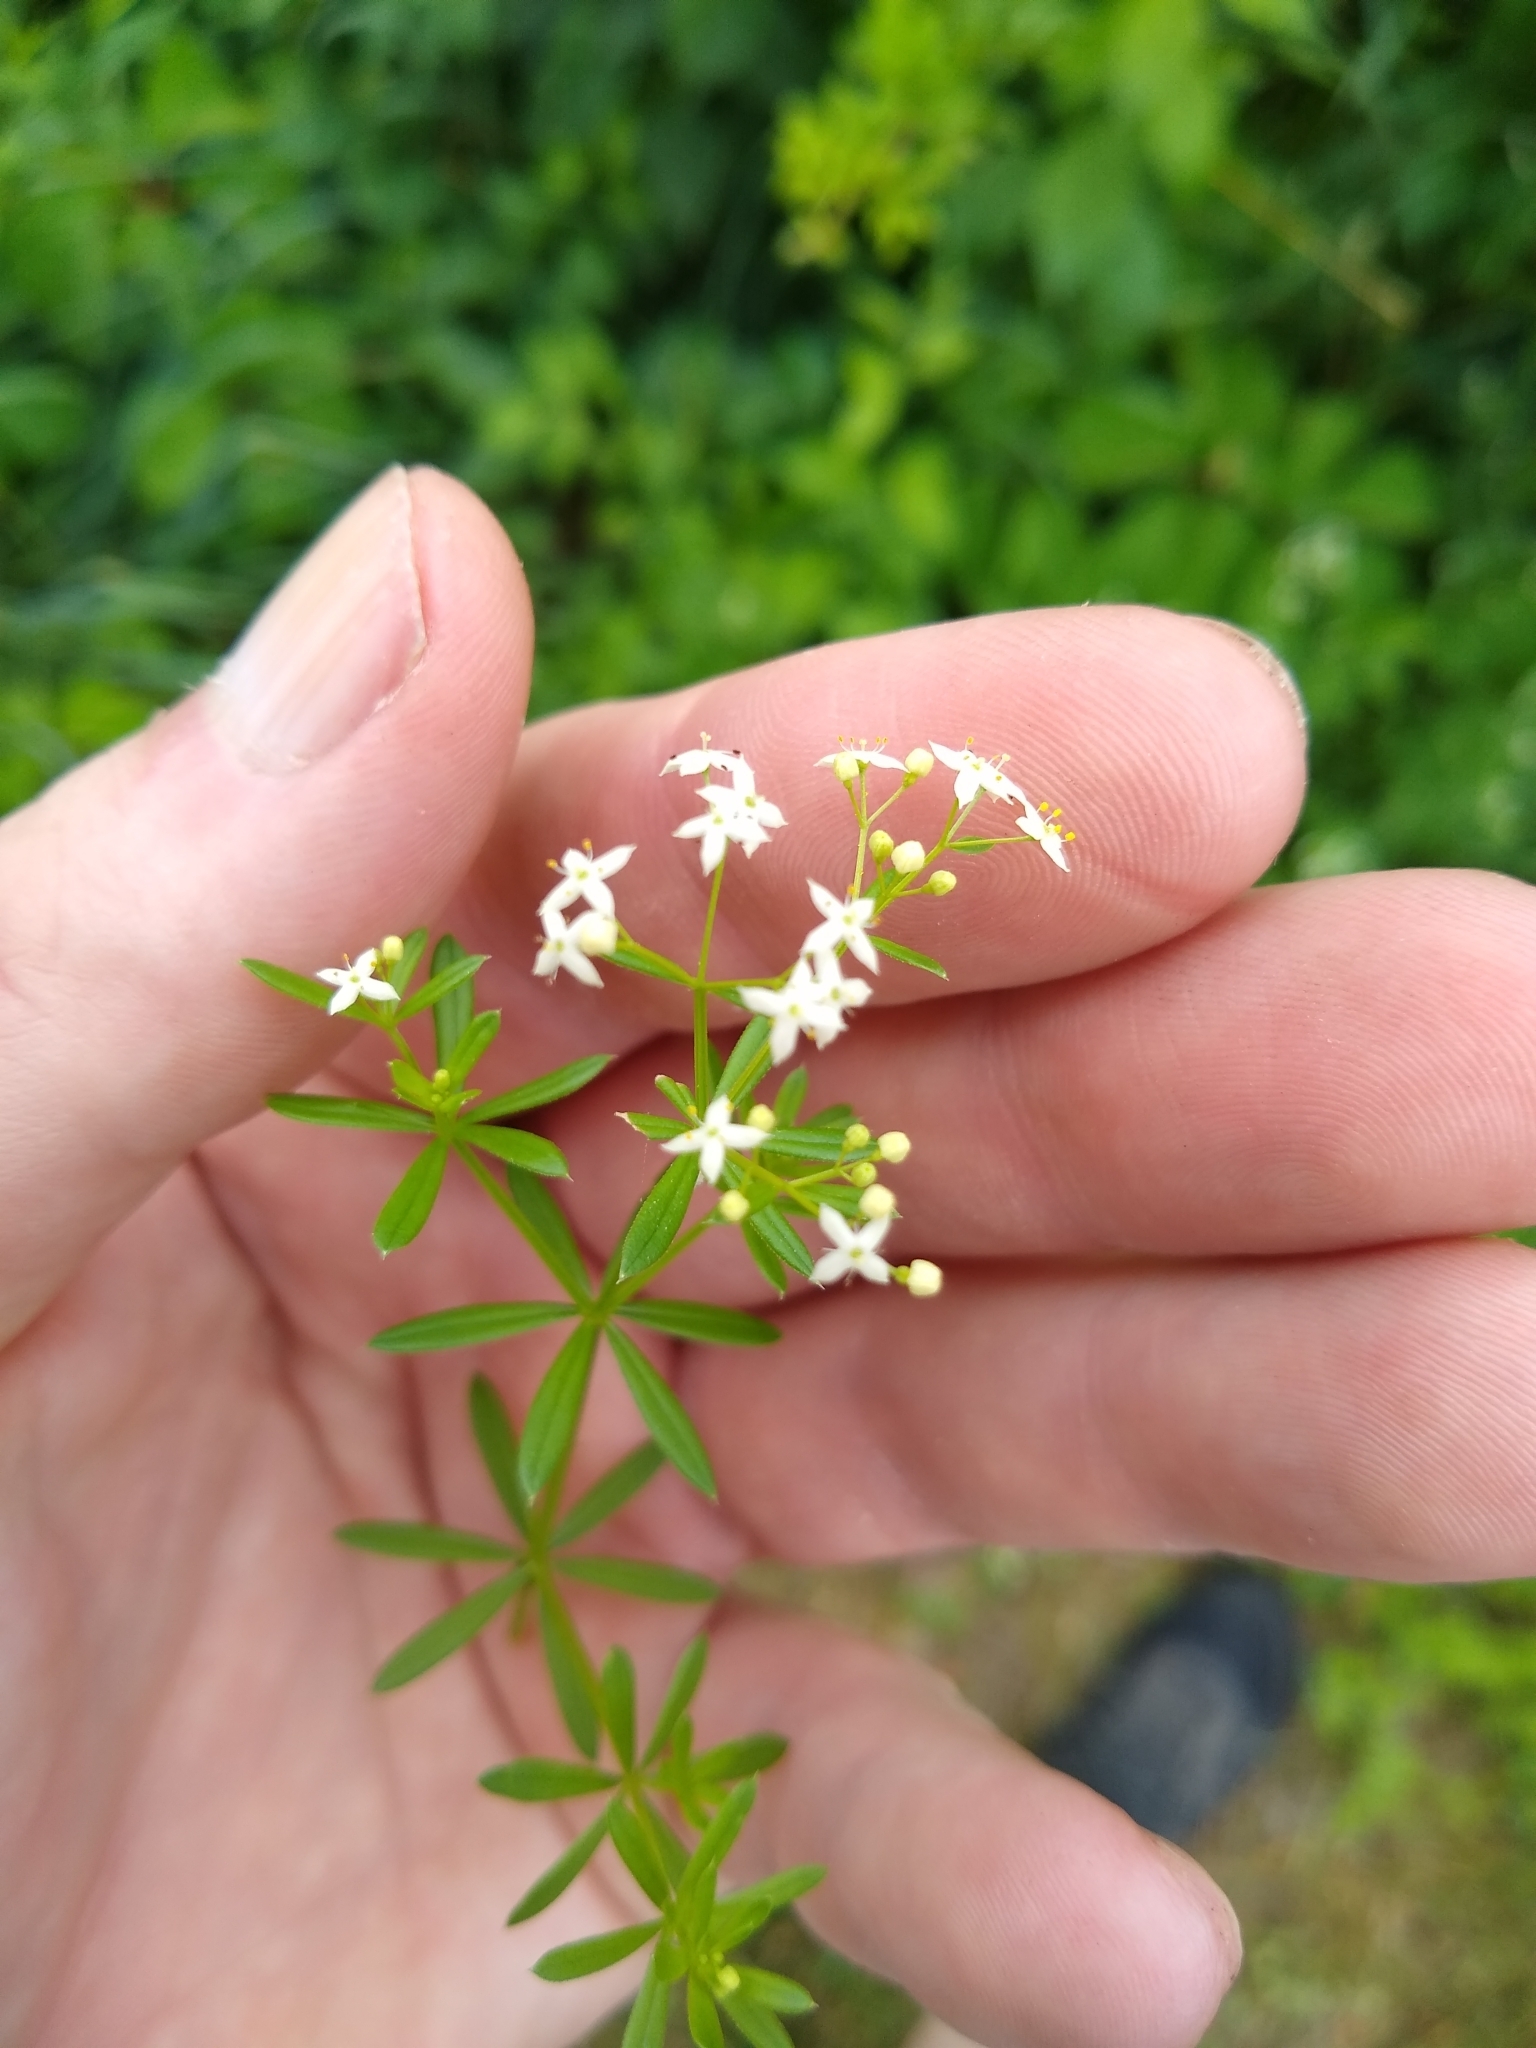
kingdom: Plantae
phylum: Tracheophyta
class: Magnoliopsida
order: Gentianales
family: Rubiaceae
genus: Galium
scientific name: Galium mollugo
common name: Hedge bedstraw
